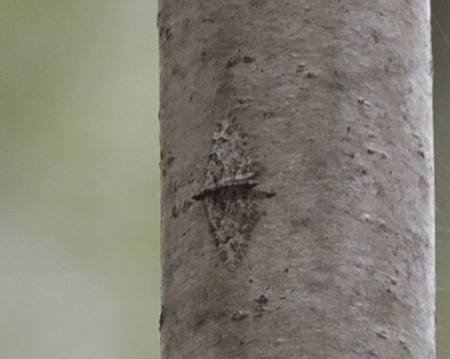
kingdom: Animalia
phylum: Arthropoda
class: Insecta
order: Lepidoptera
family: Geometridae
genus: Gymnoscelis
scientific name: Gymnoscelis rufifasciata
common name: Double-striped pug
